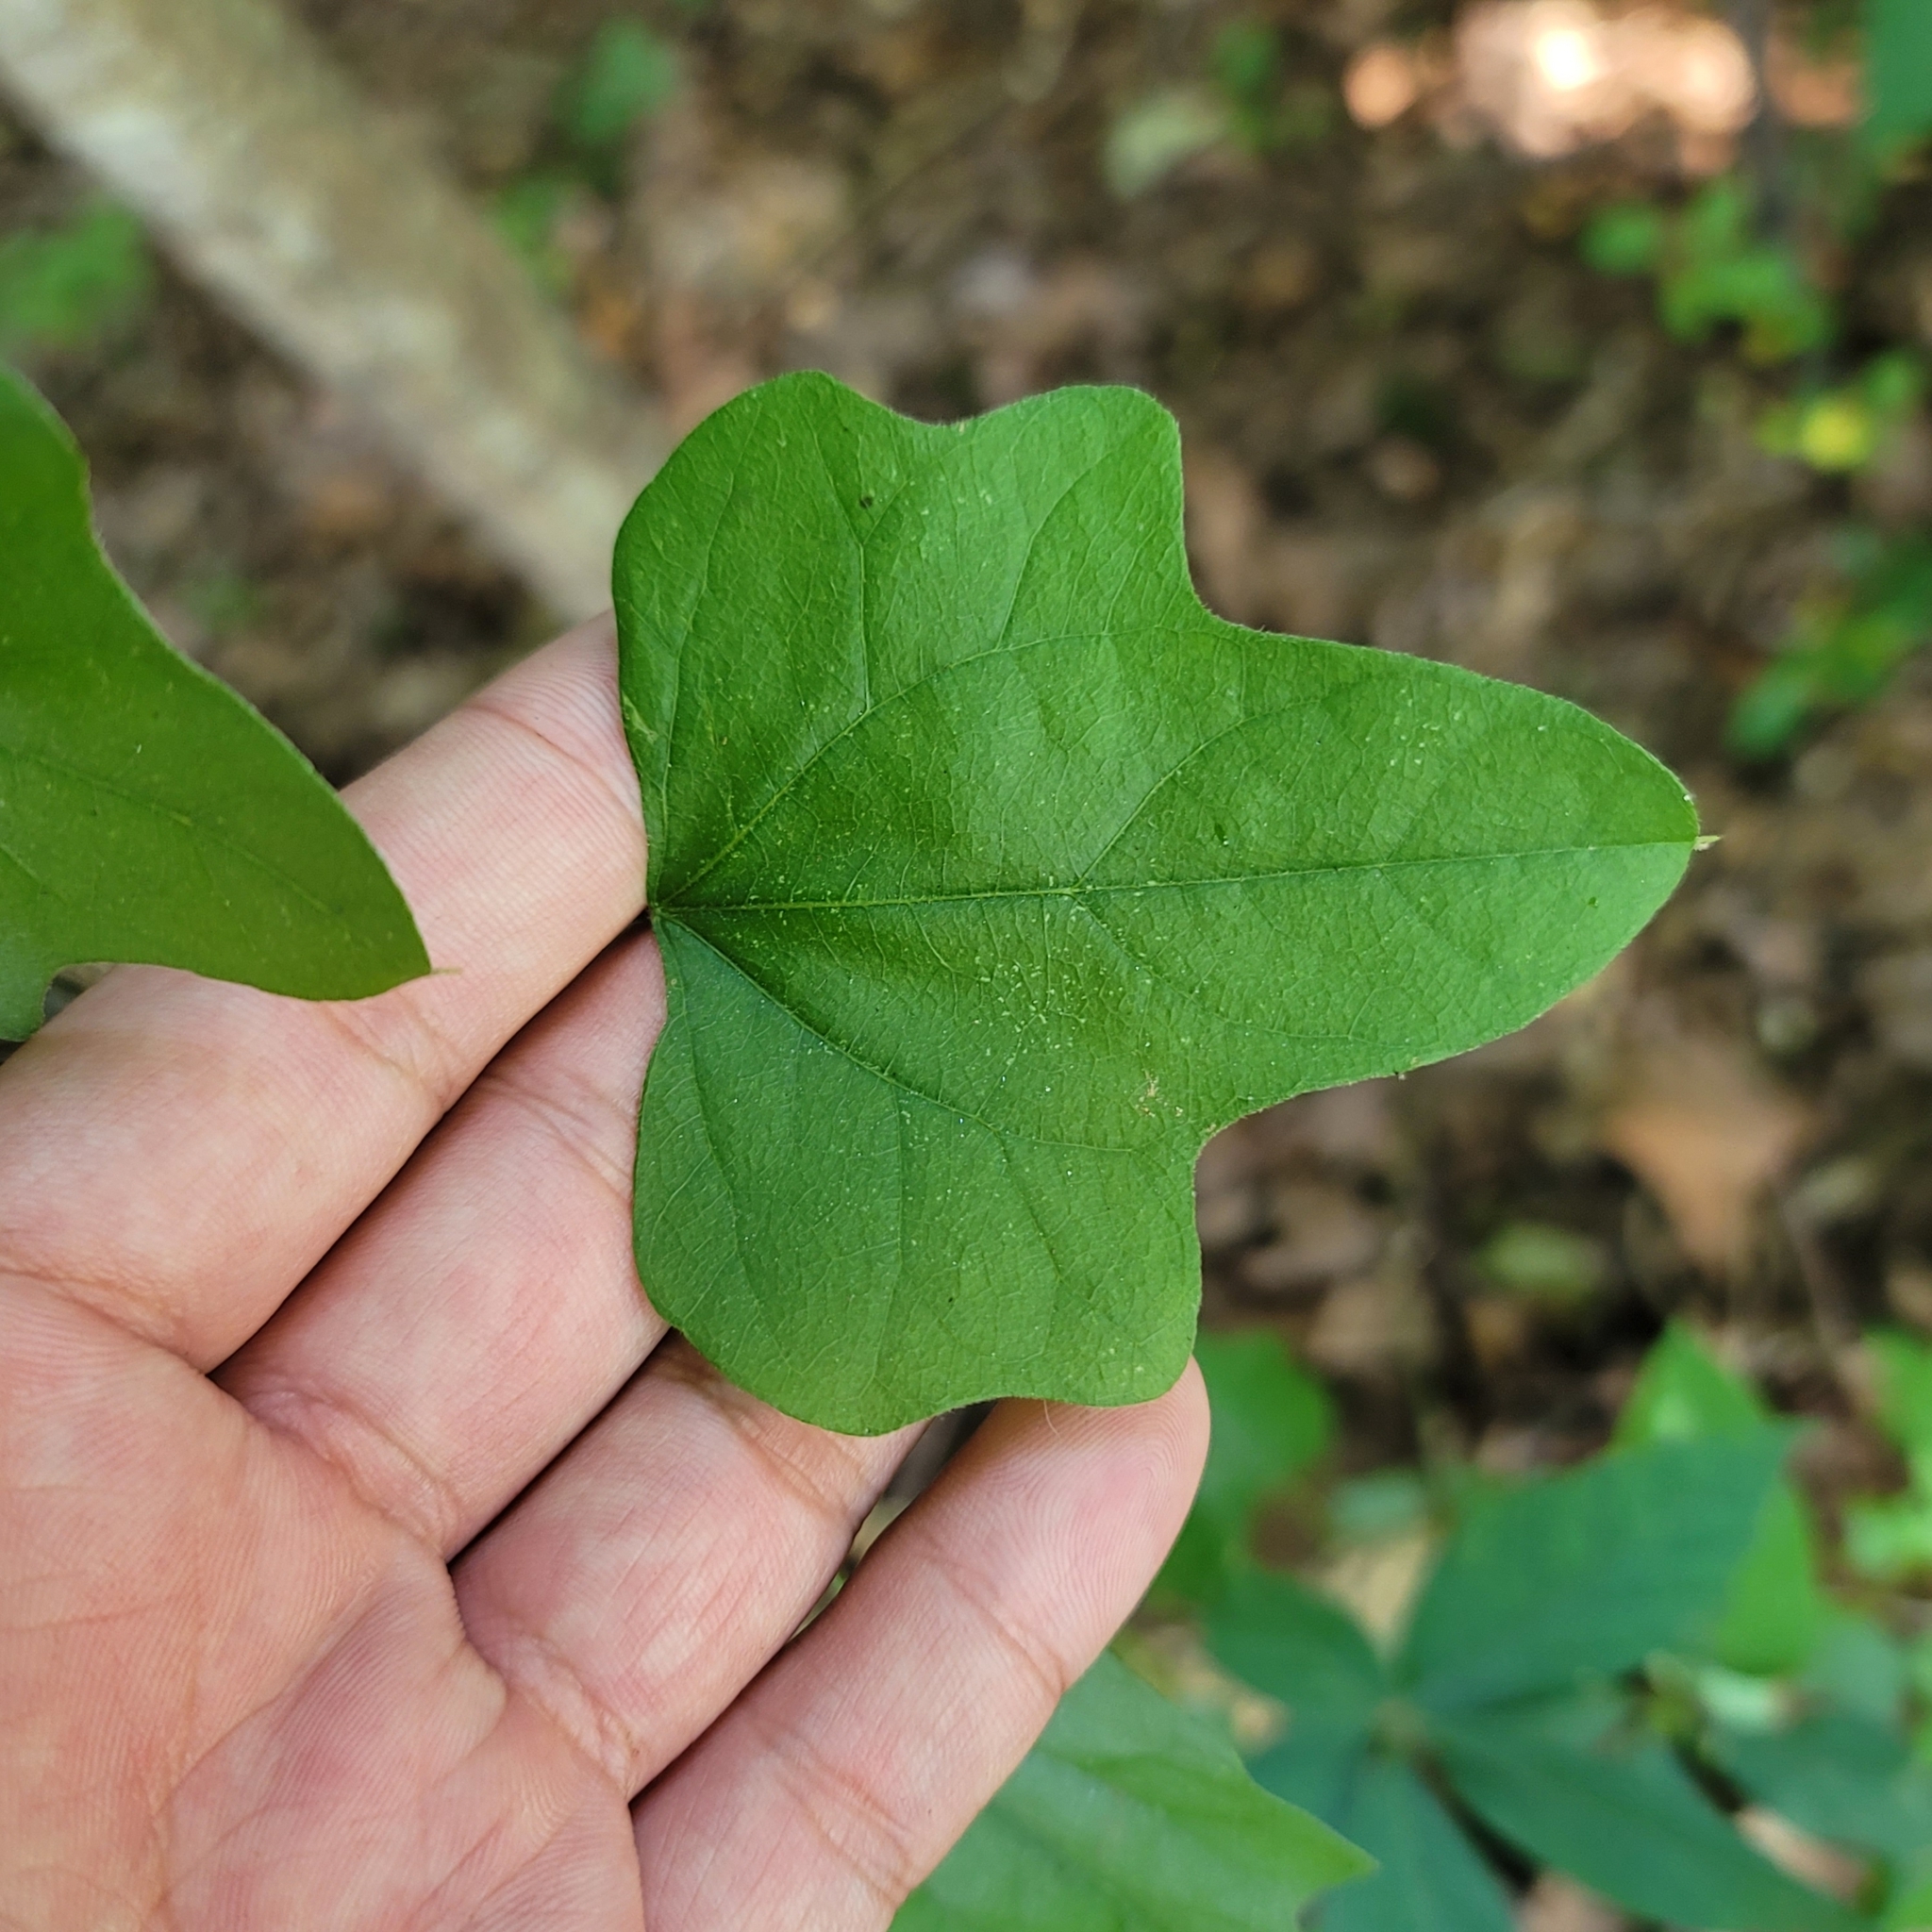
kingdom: Plantae
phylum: Tracheophyta
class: Magnoliopsida
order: Ranunculales
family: Menispermaceae
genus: Cocculus
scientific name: Cocculus carolinus
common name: Carolina moonseed
